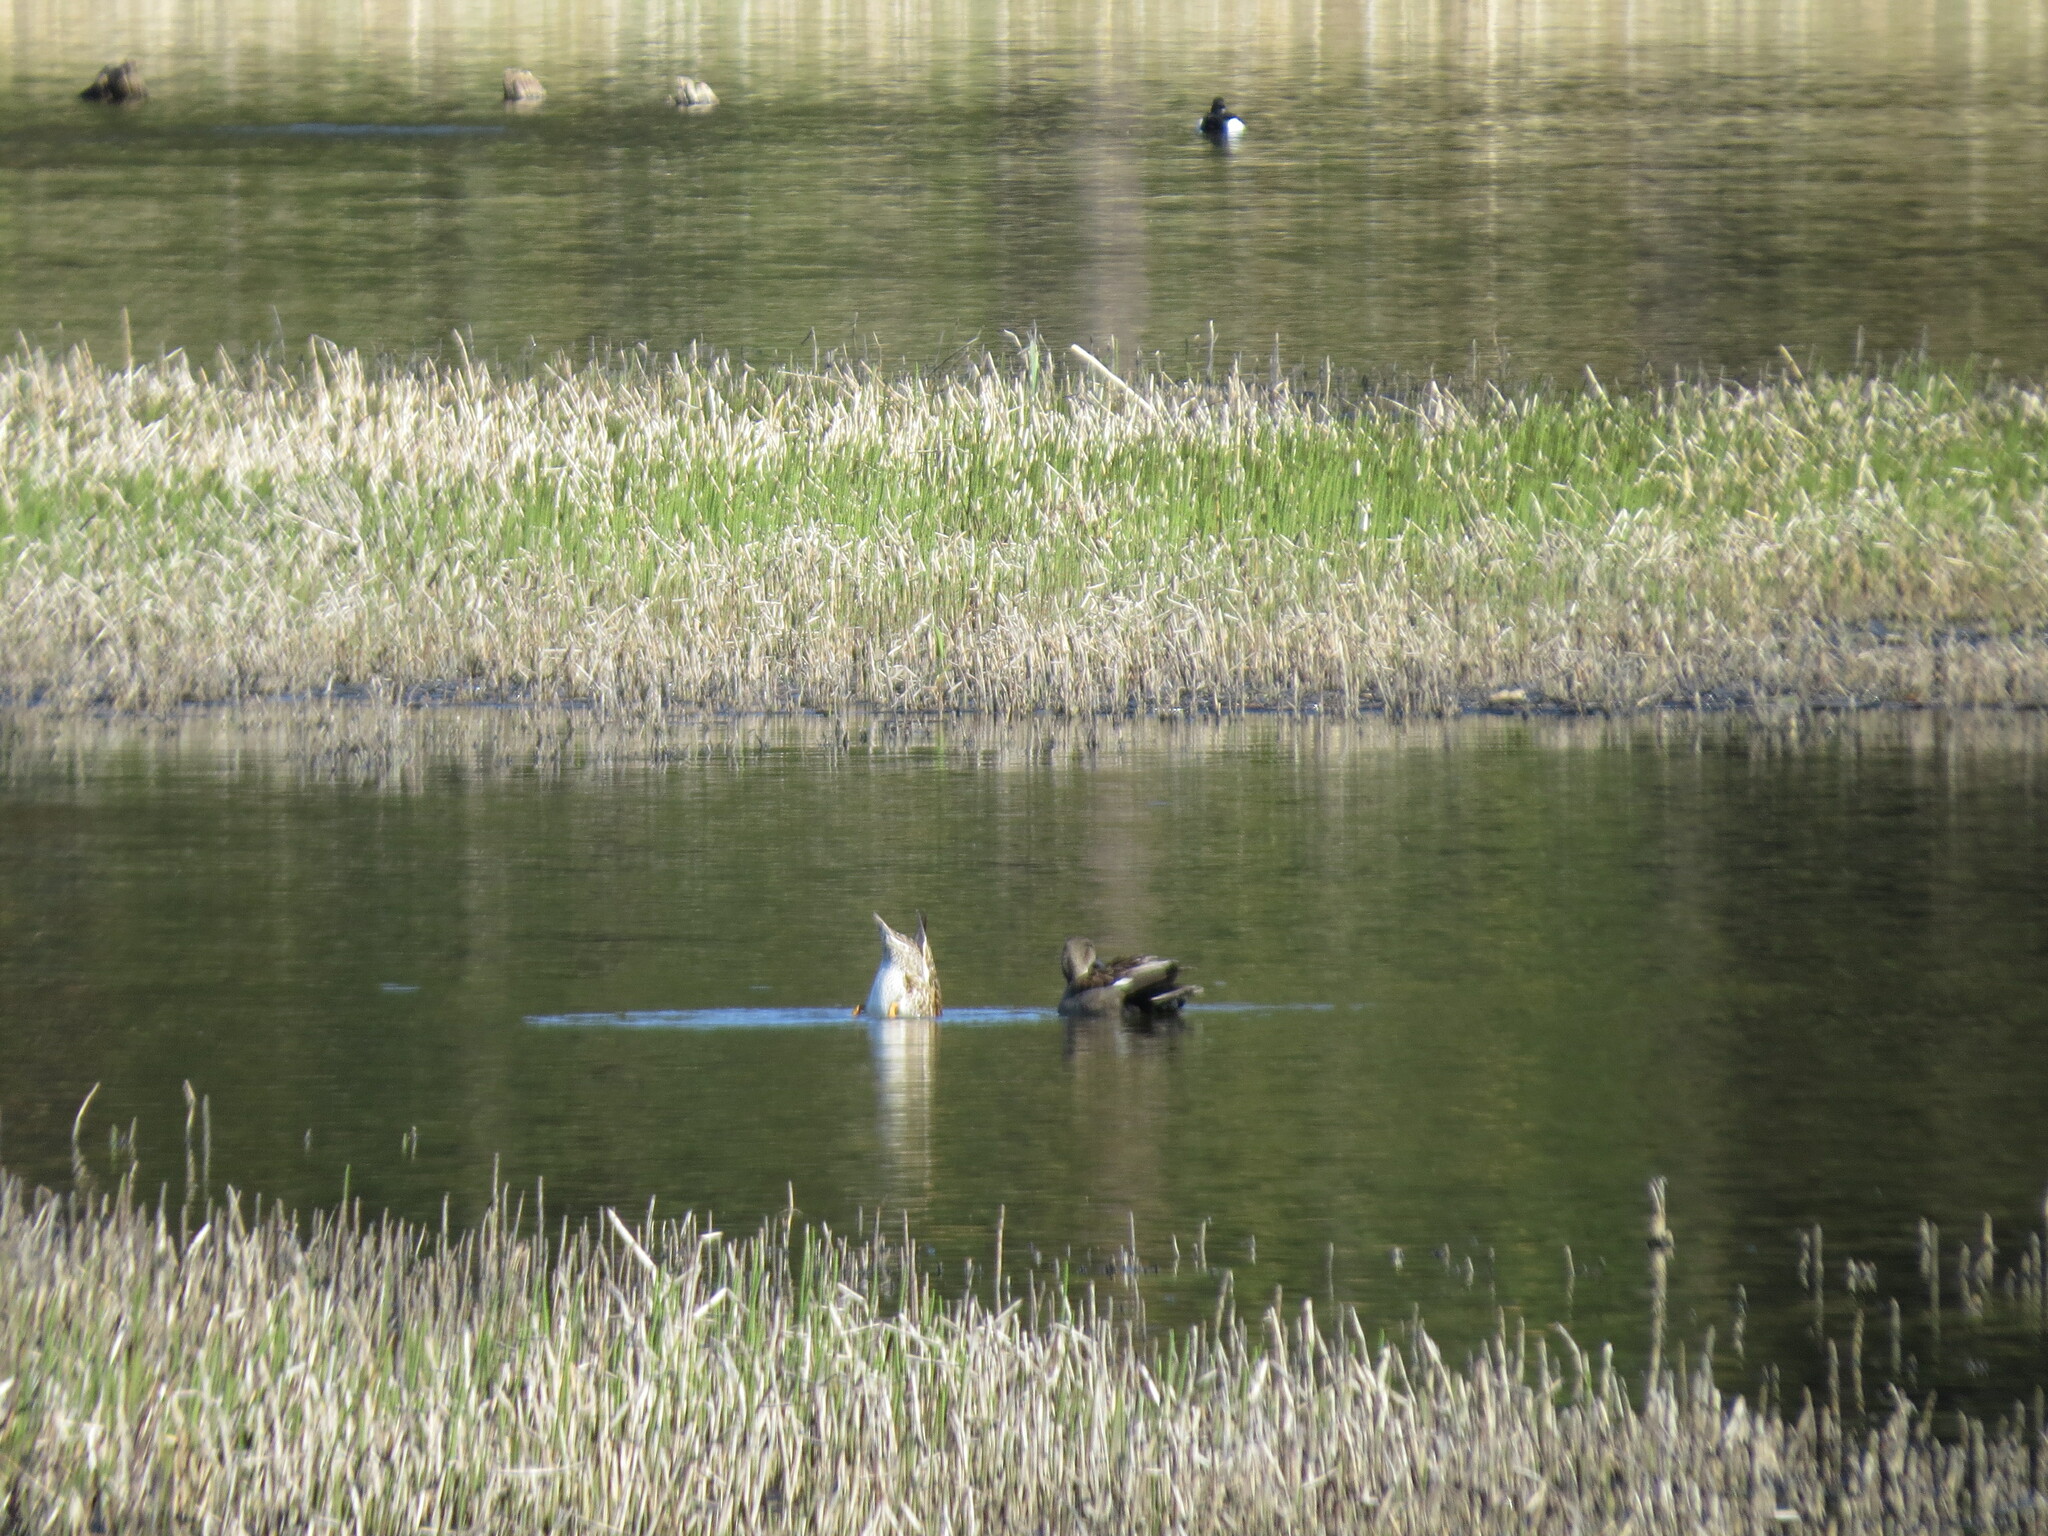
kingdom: Animalia
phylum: Chordata
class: Aves
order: Anseriformes
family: Anatidae
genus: Mareca
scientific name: Mareca strepera
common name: Gadwall
